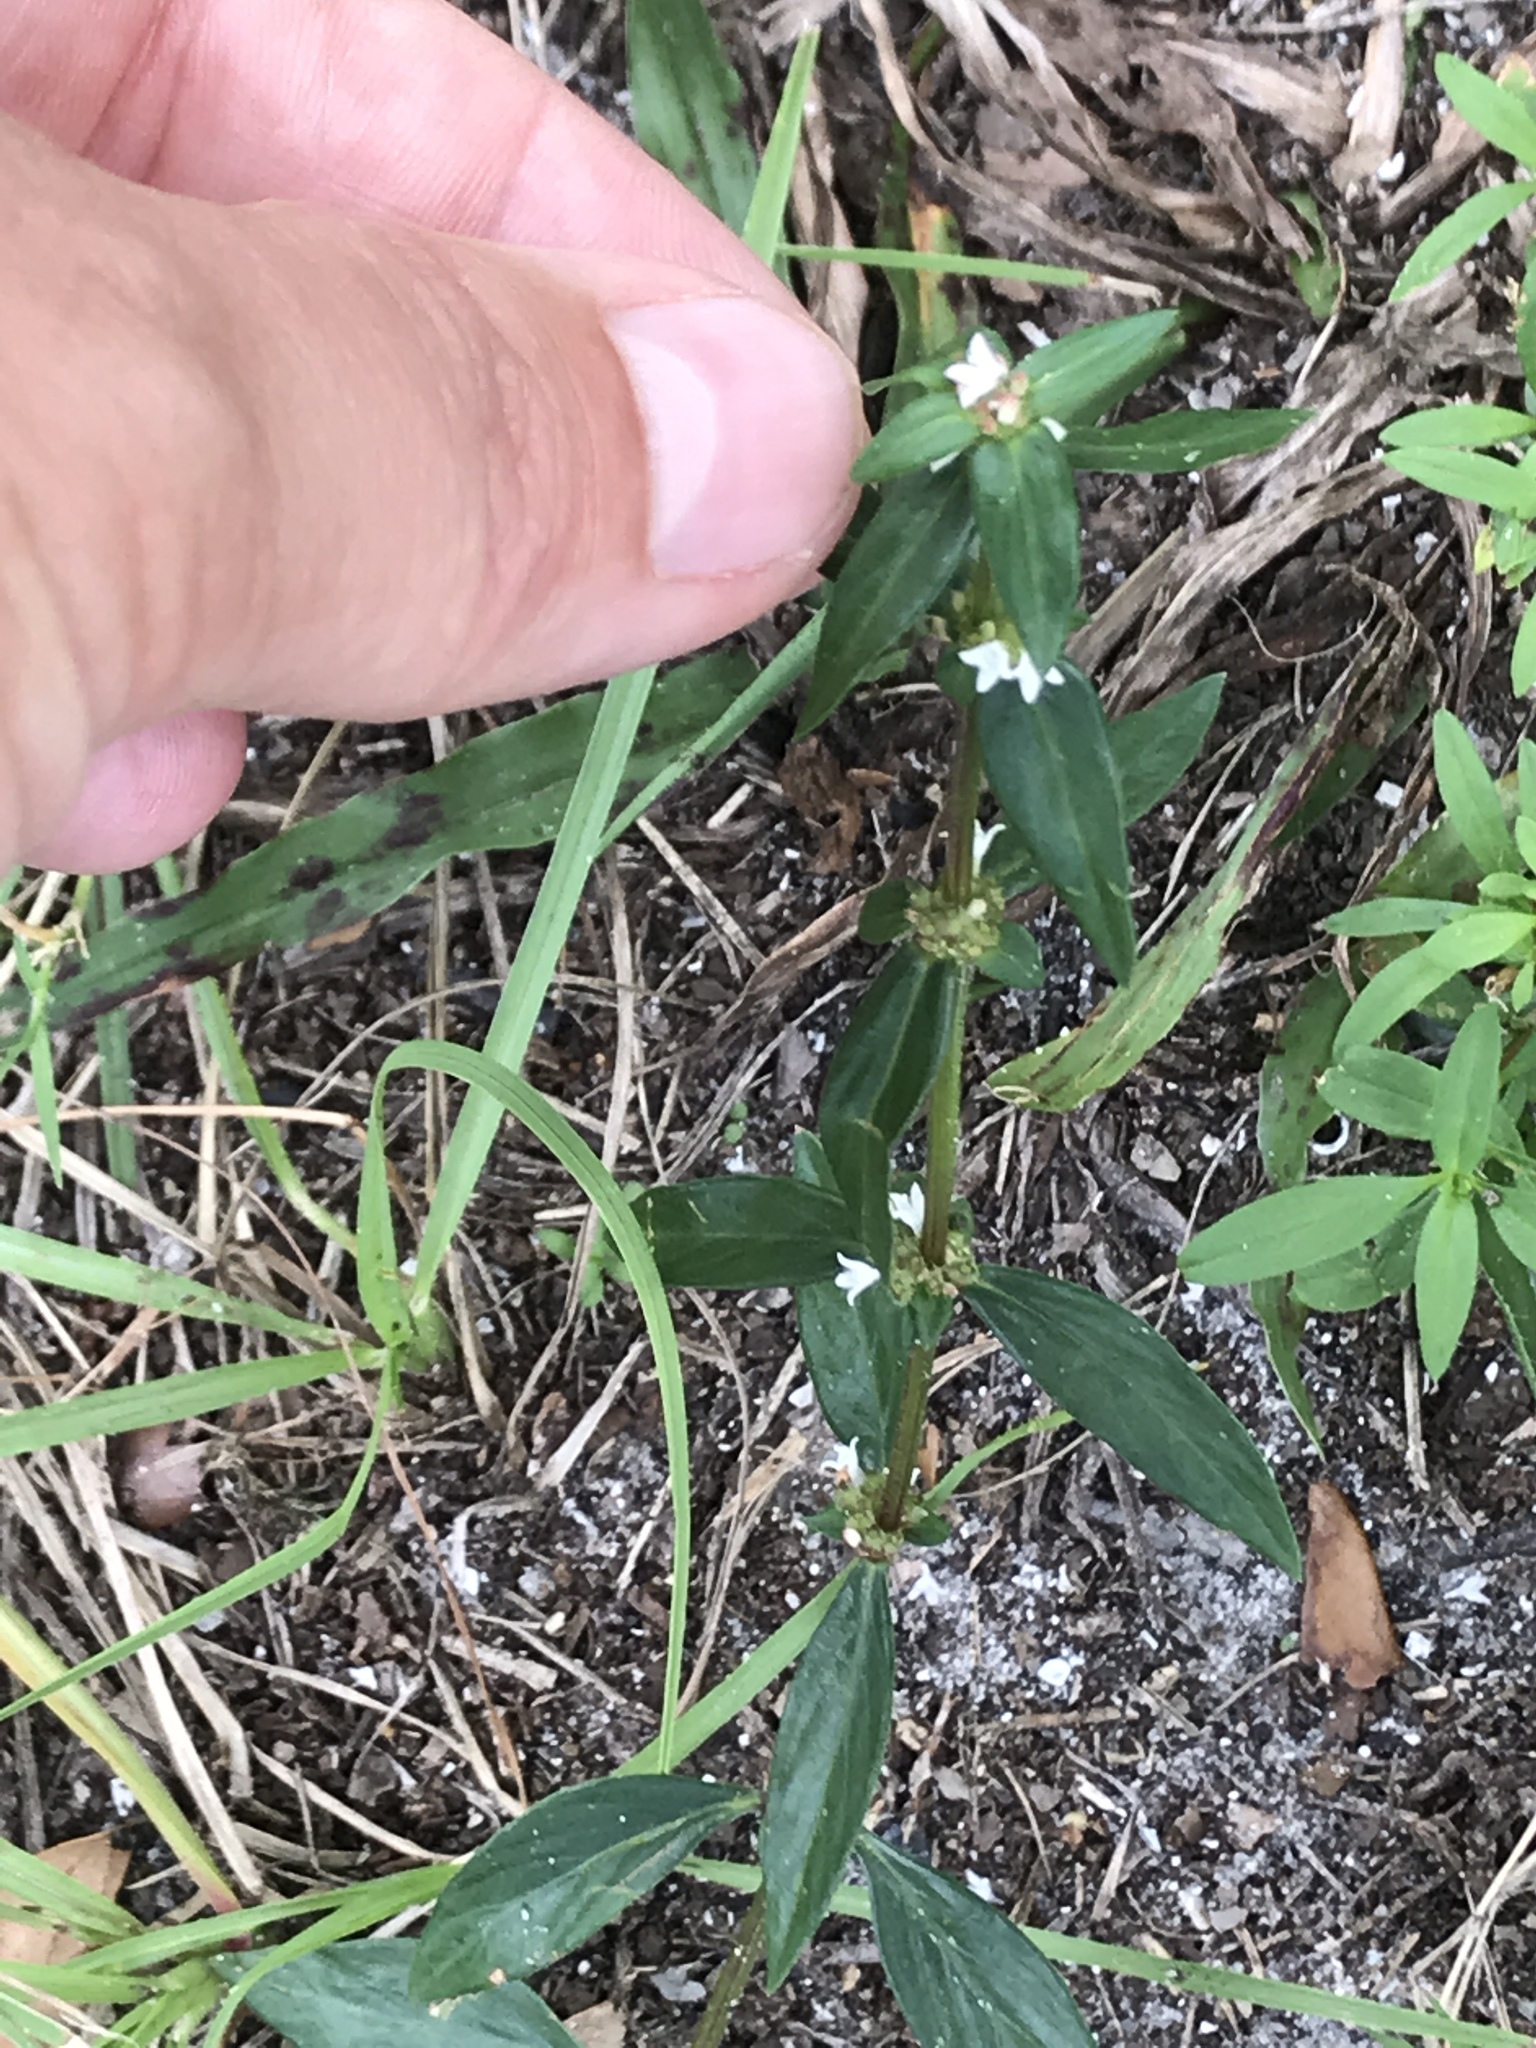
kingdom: Plantae
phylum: Tracheophyta
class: Magnoliopsida
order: Gentianales
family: Rubiaceae
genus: Spermacoce
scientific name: Spermacoce remota
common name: Woodland false buttonweed
